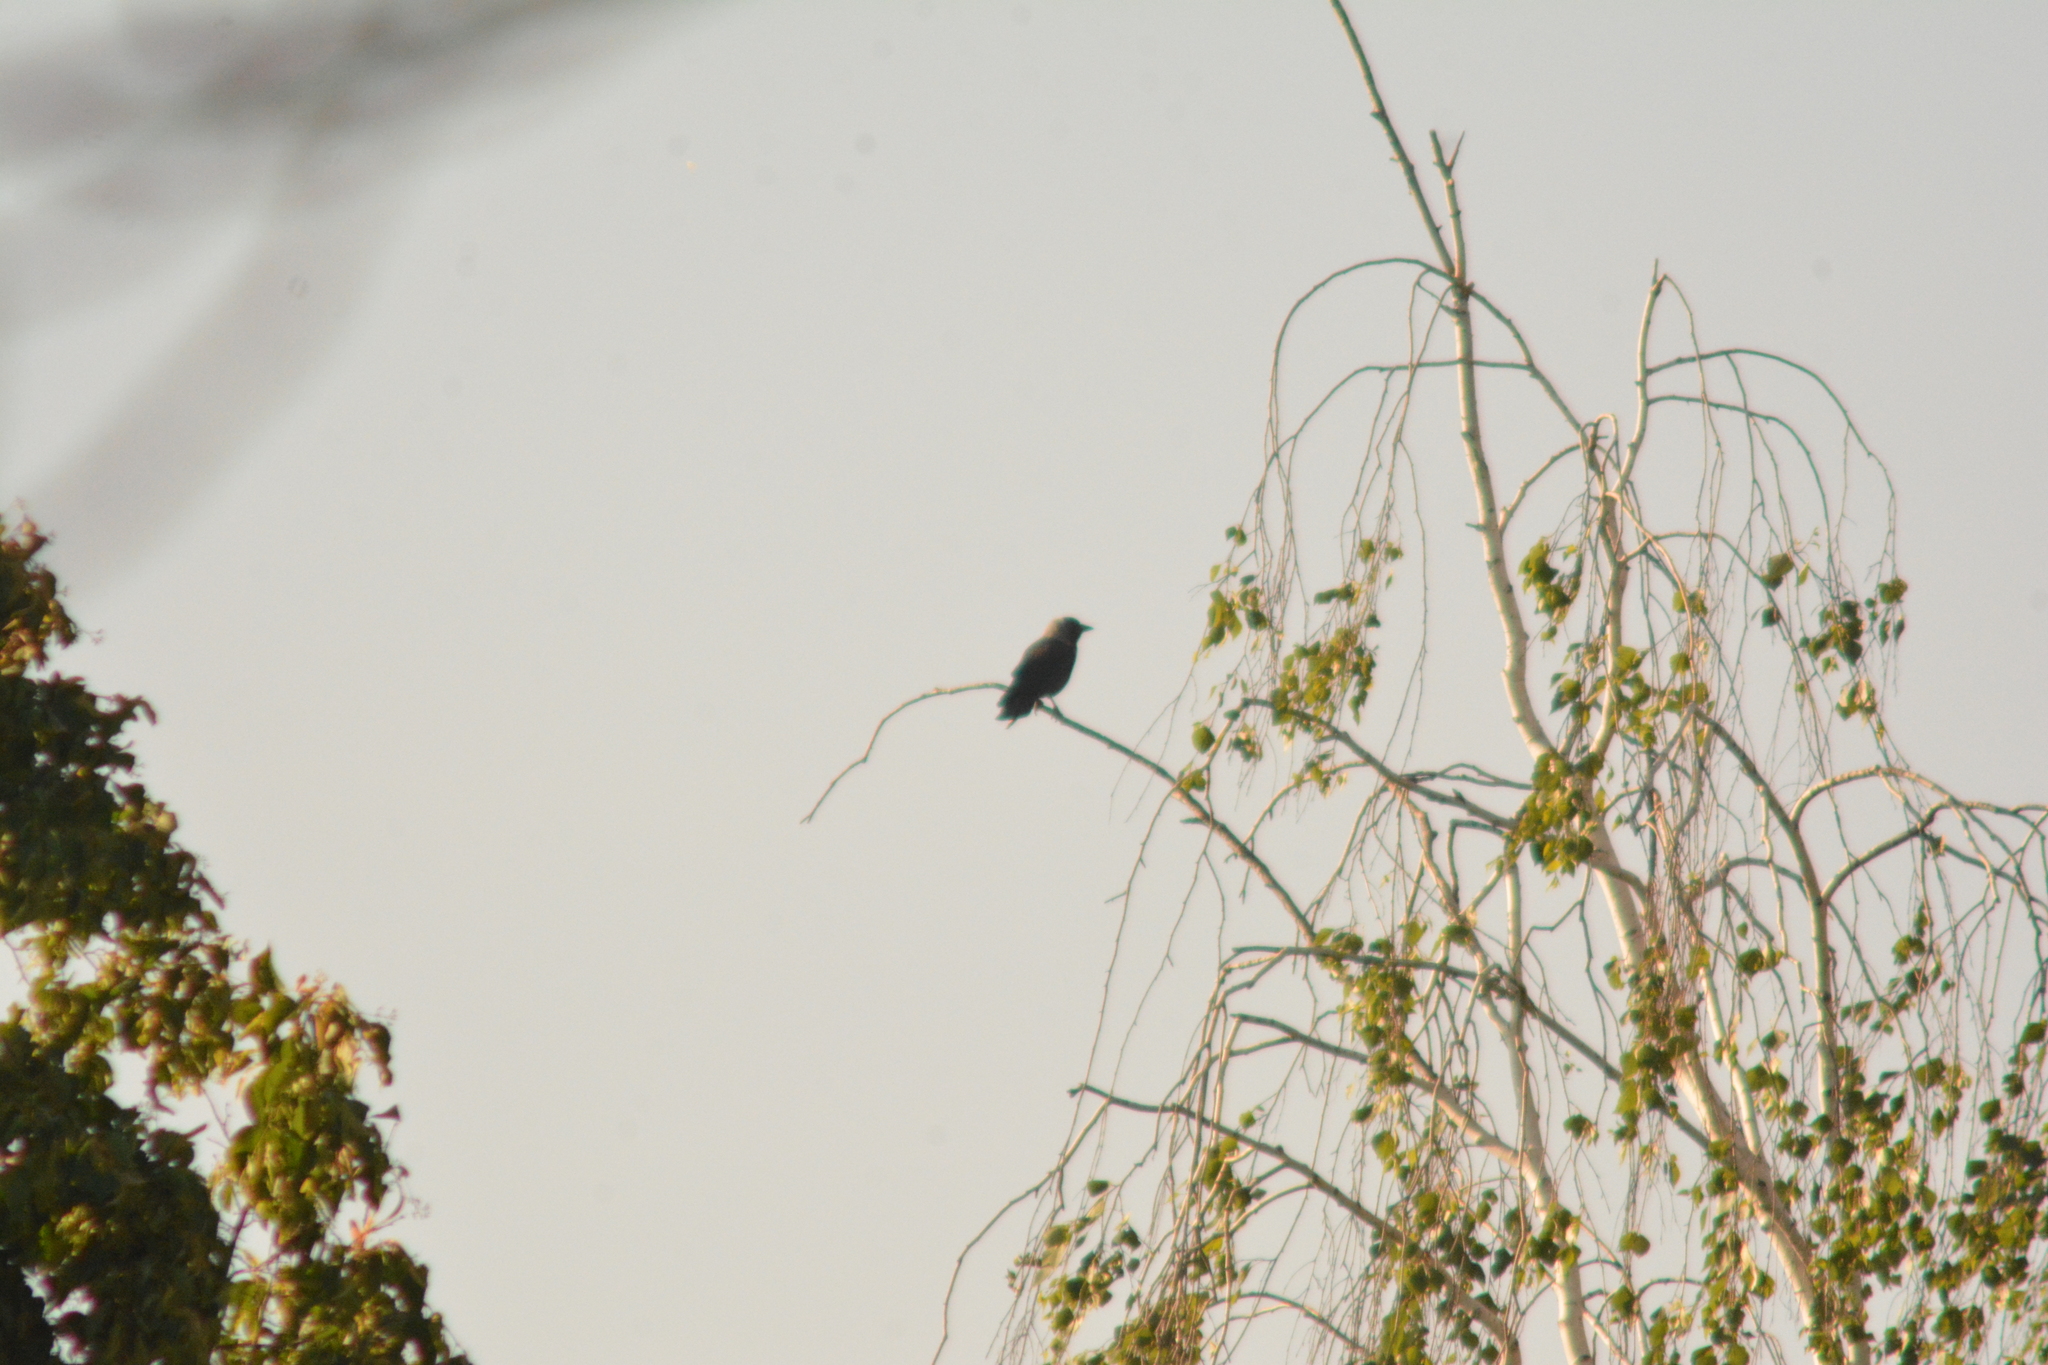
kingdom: Animalia
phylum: Chordata
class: Aves
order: Passeriformes
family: Corvidae
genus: Coloeus
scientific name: Coloeus monedula
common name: Western jackdaw
